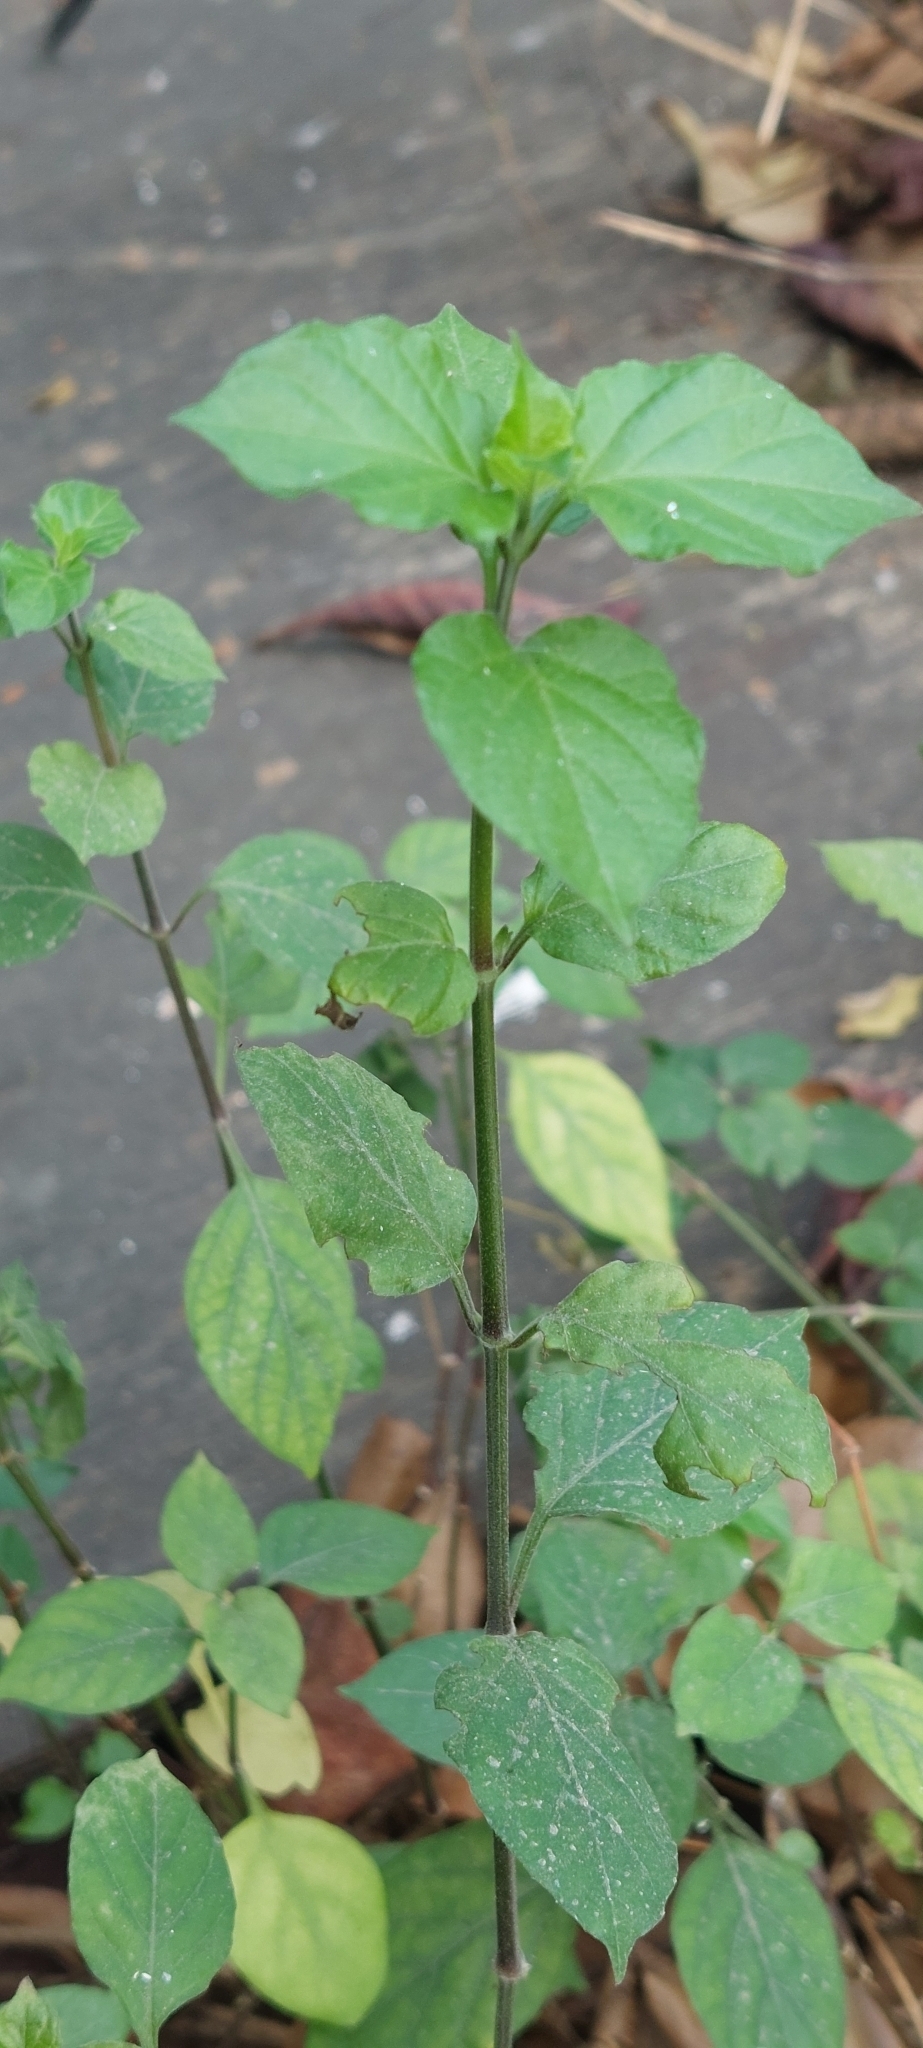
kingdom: Plantae
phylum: Tracheophyta
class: Magnoliopsida
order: Lamiales
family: Acanthaceae
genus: Asystasia
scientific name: Asystasia gangetica
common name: Chinese violet
